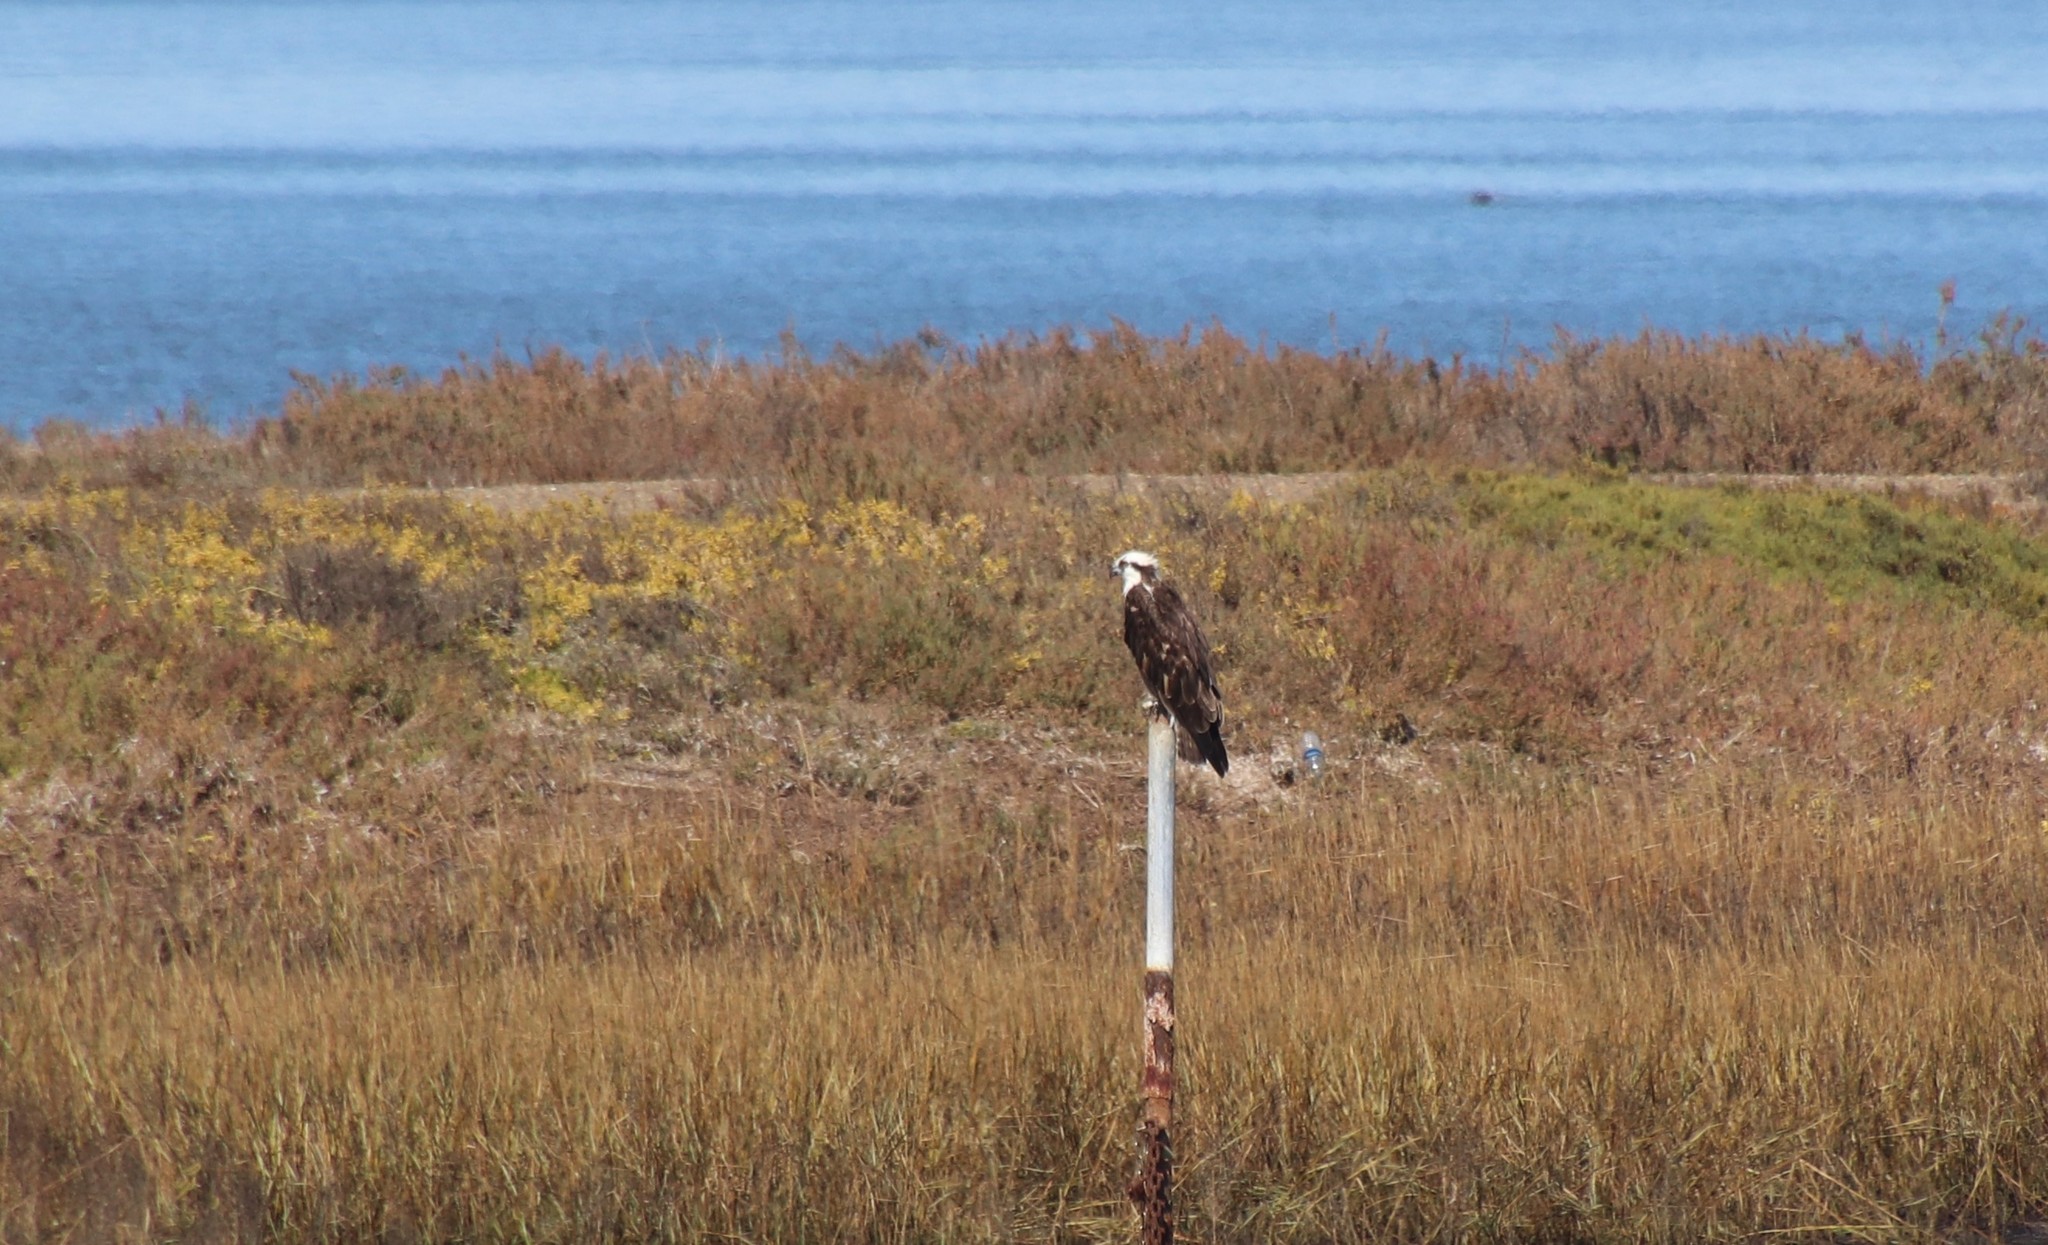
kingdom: Animalia
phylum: Chordata
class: Aves
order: Accipitriformes
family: Pandionidae
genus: Pandion
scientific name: Pandion haliaetus
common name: Osprey
